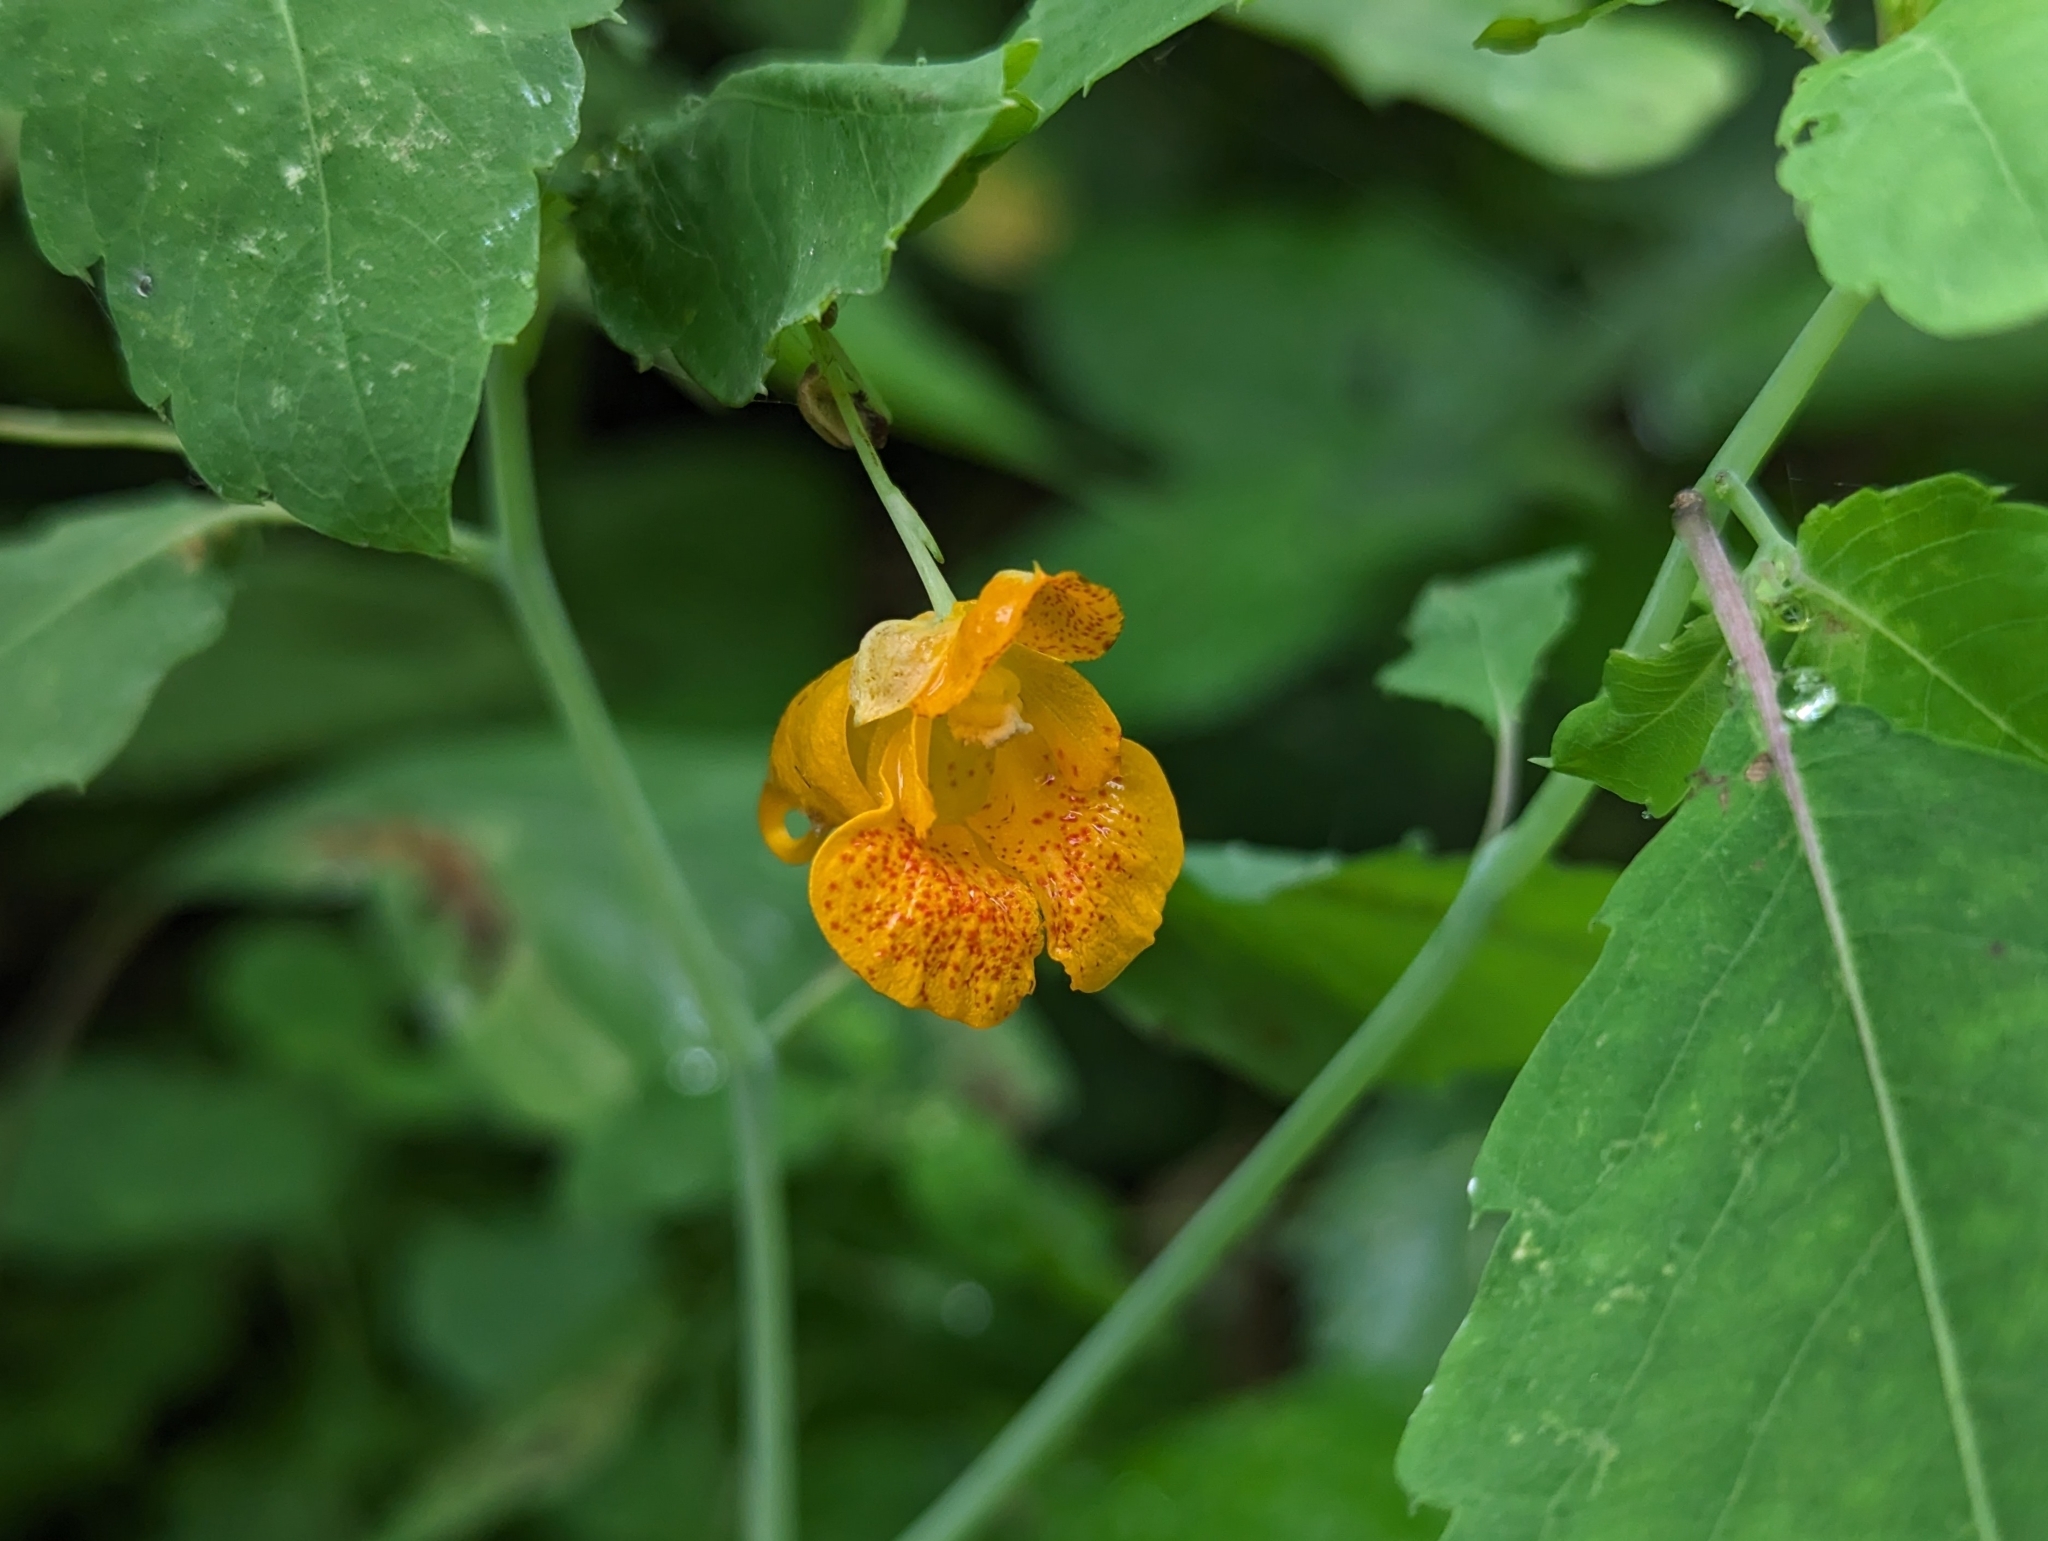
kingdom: Plantae
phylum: Tracheophyta
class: Magnoliopsida
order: Ericales
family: Balsaminaceae
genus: Impatiens
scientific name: Impatiens capensis
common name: Orange balsam
